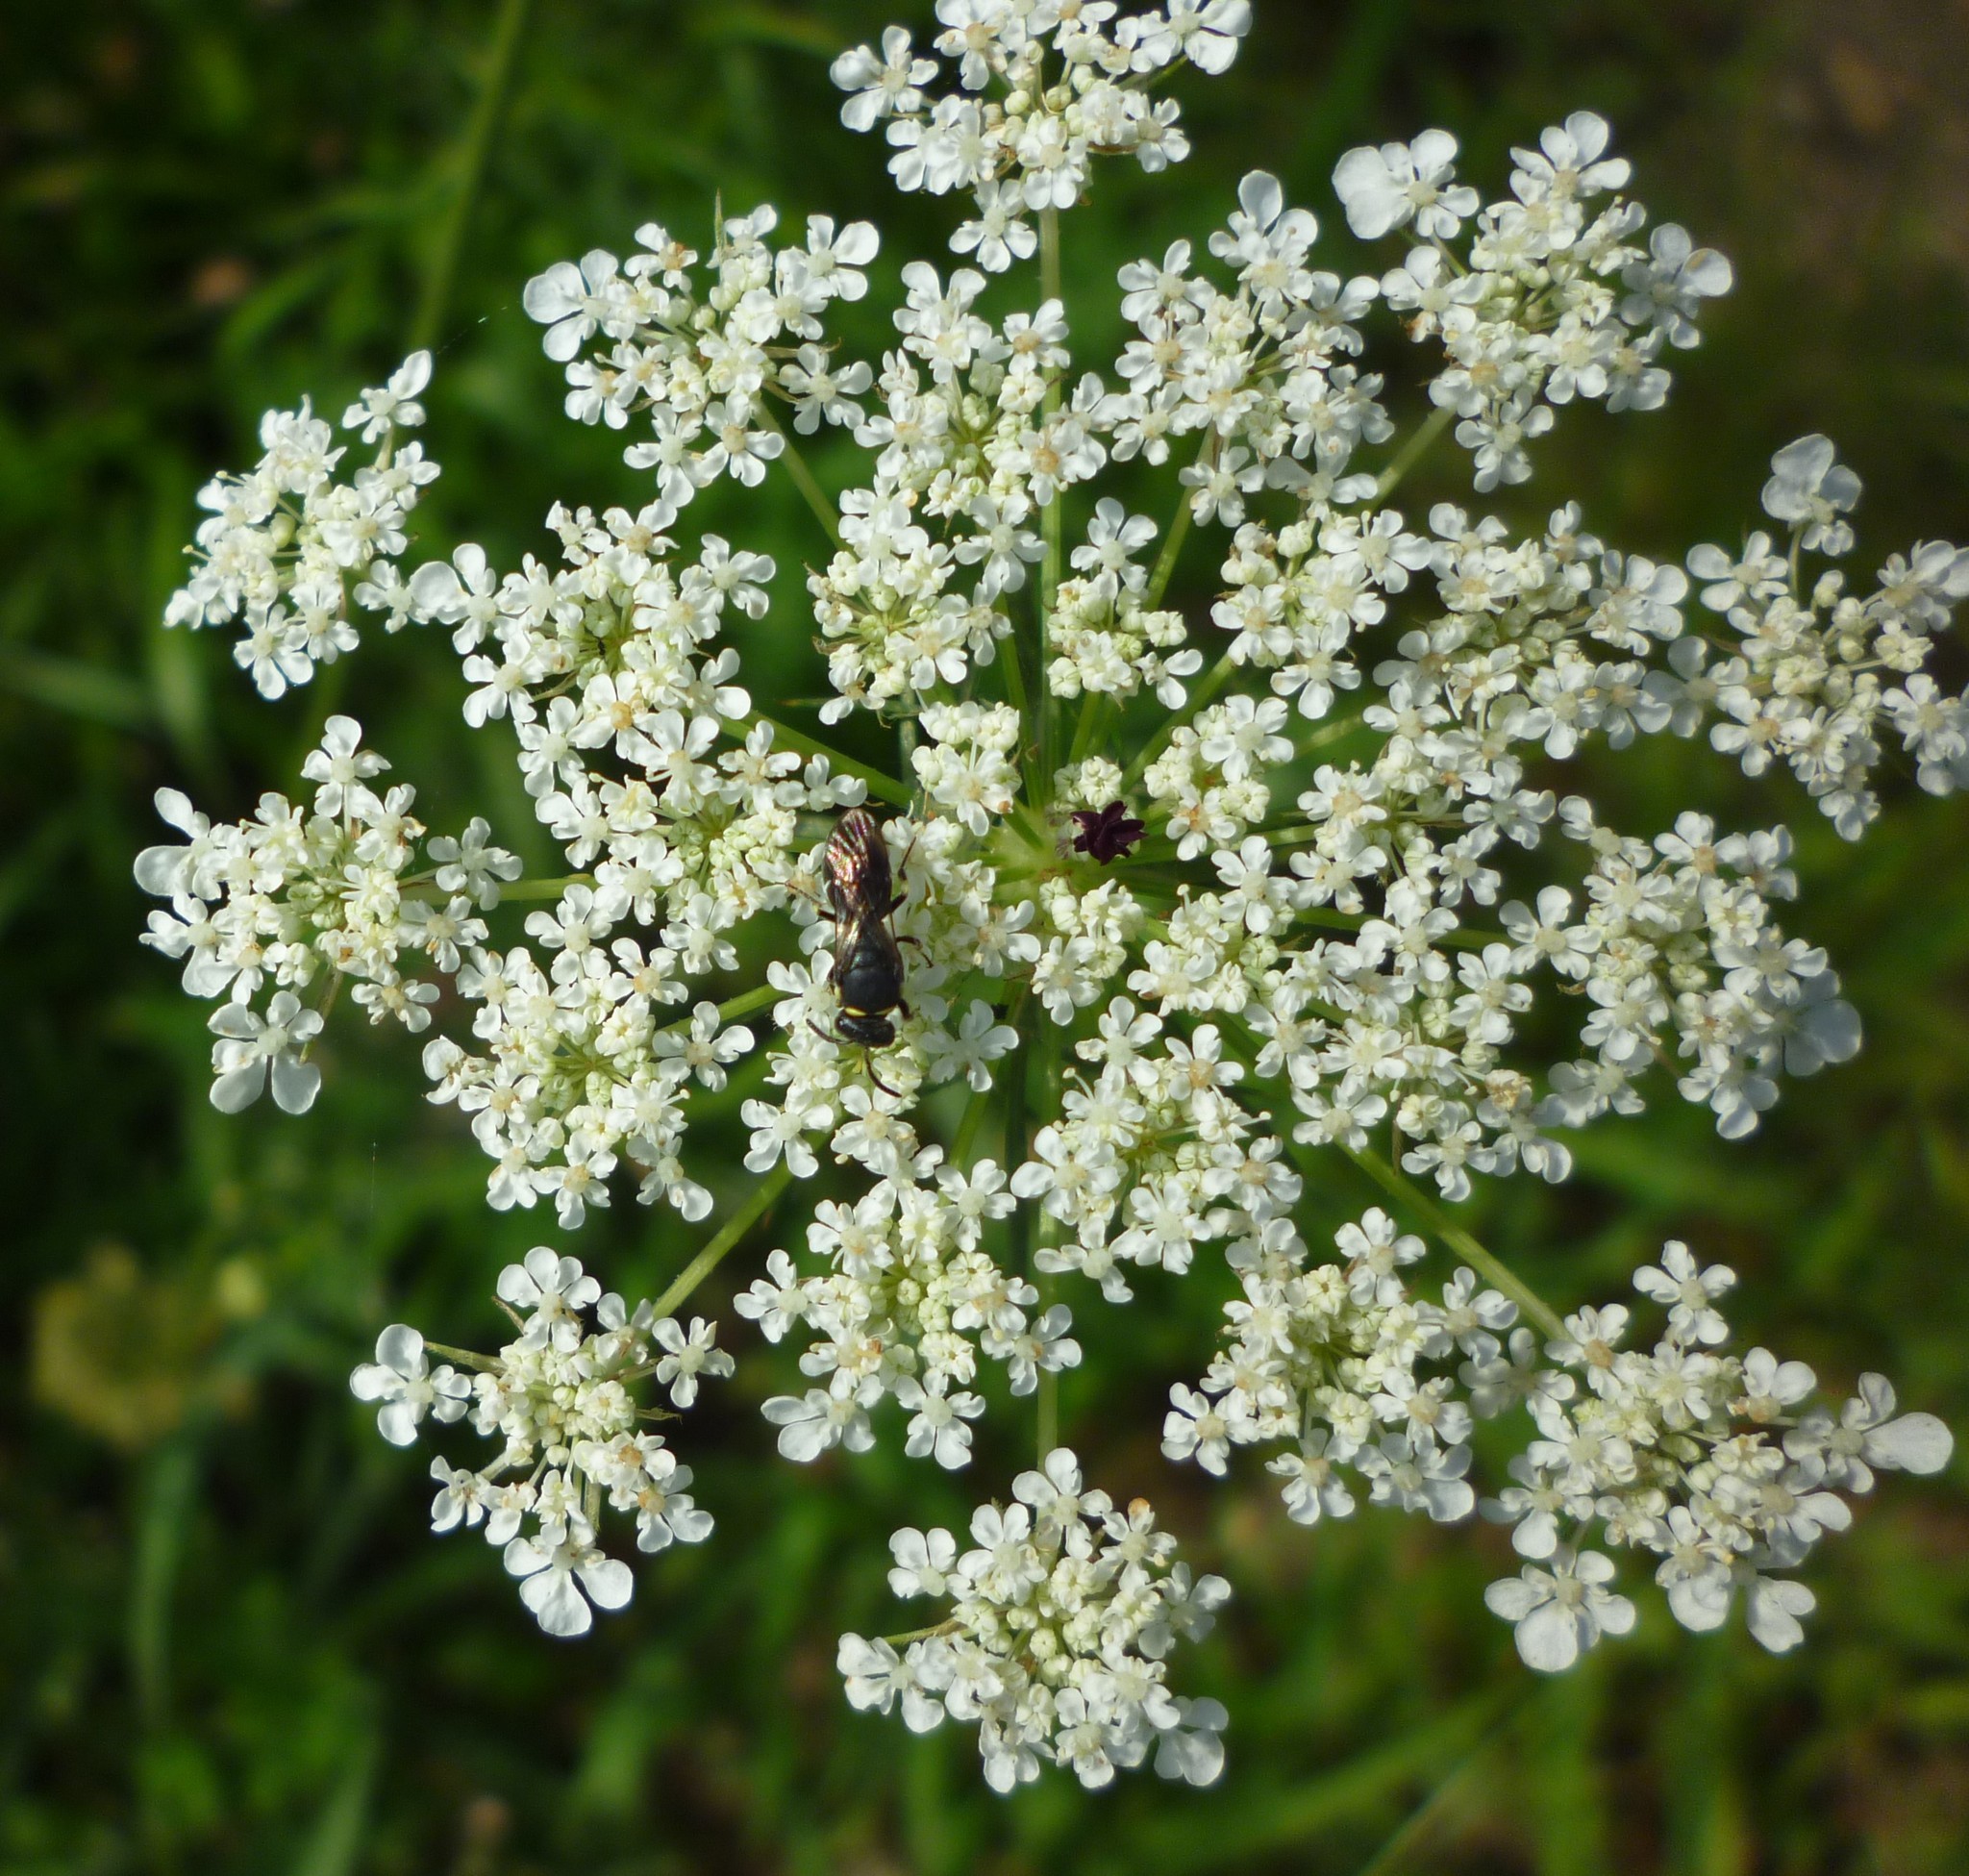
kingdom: Plantae
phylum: Tracheophyta
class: Magnoliopsida
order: Apiales
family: Apiaceae
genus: Daucus
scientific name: Daucus carota
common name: Wild carrot
